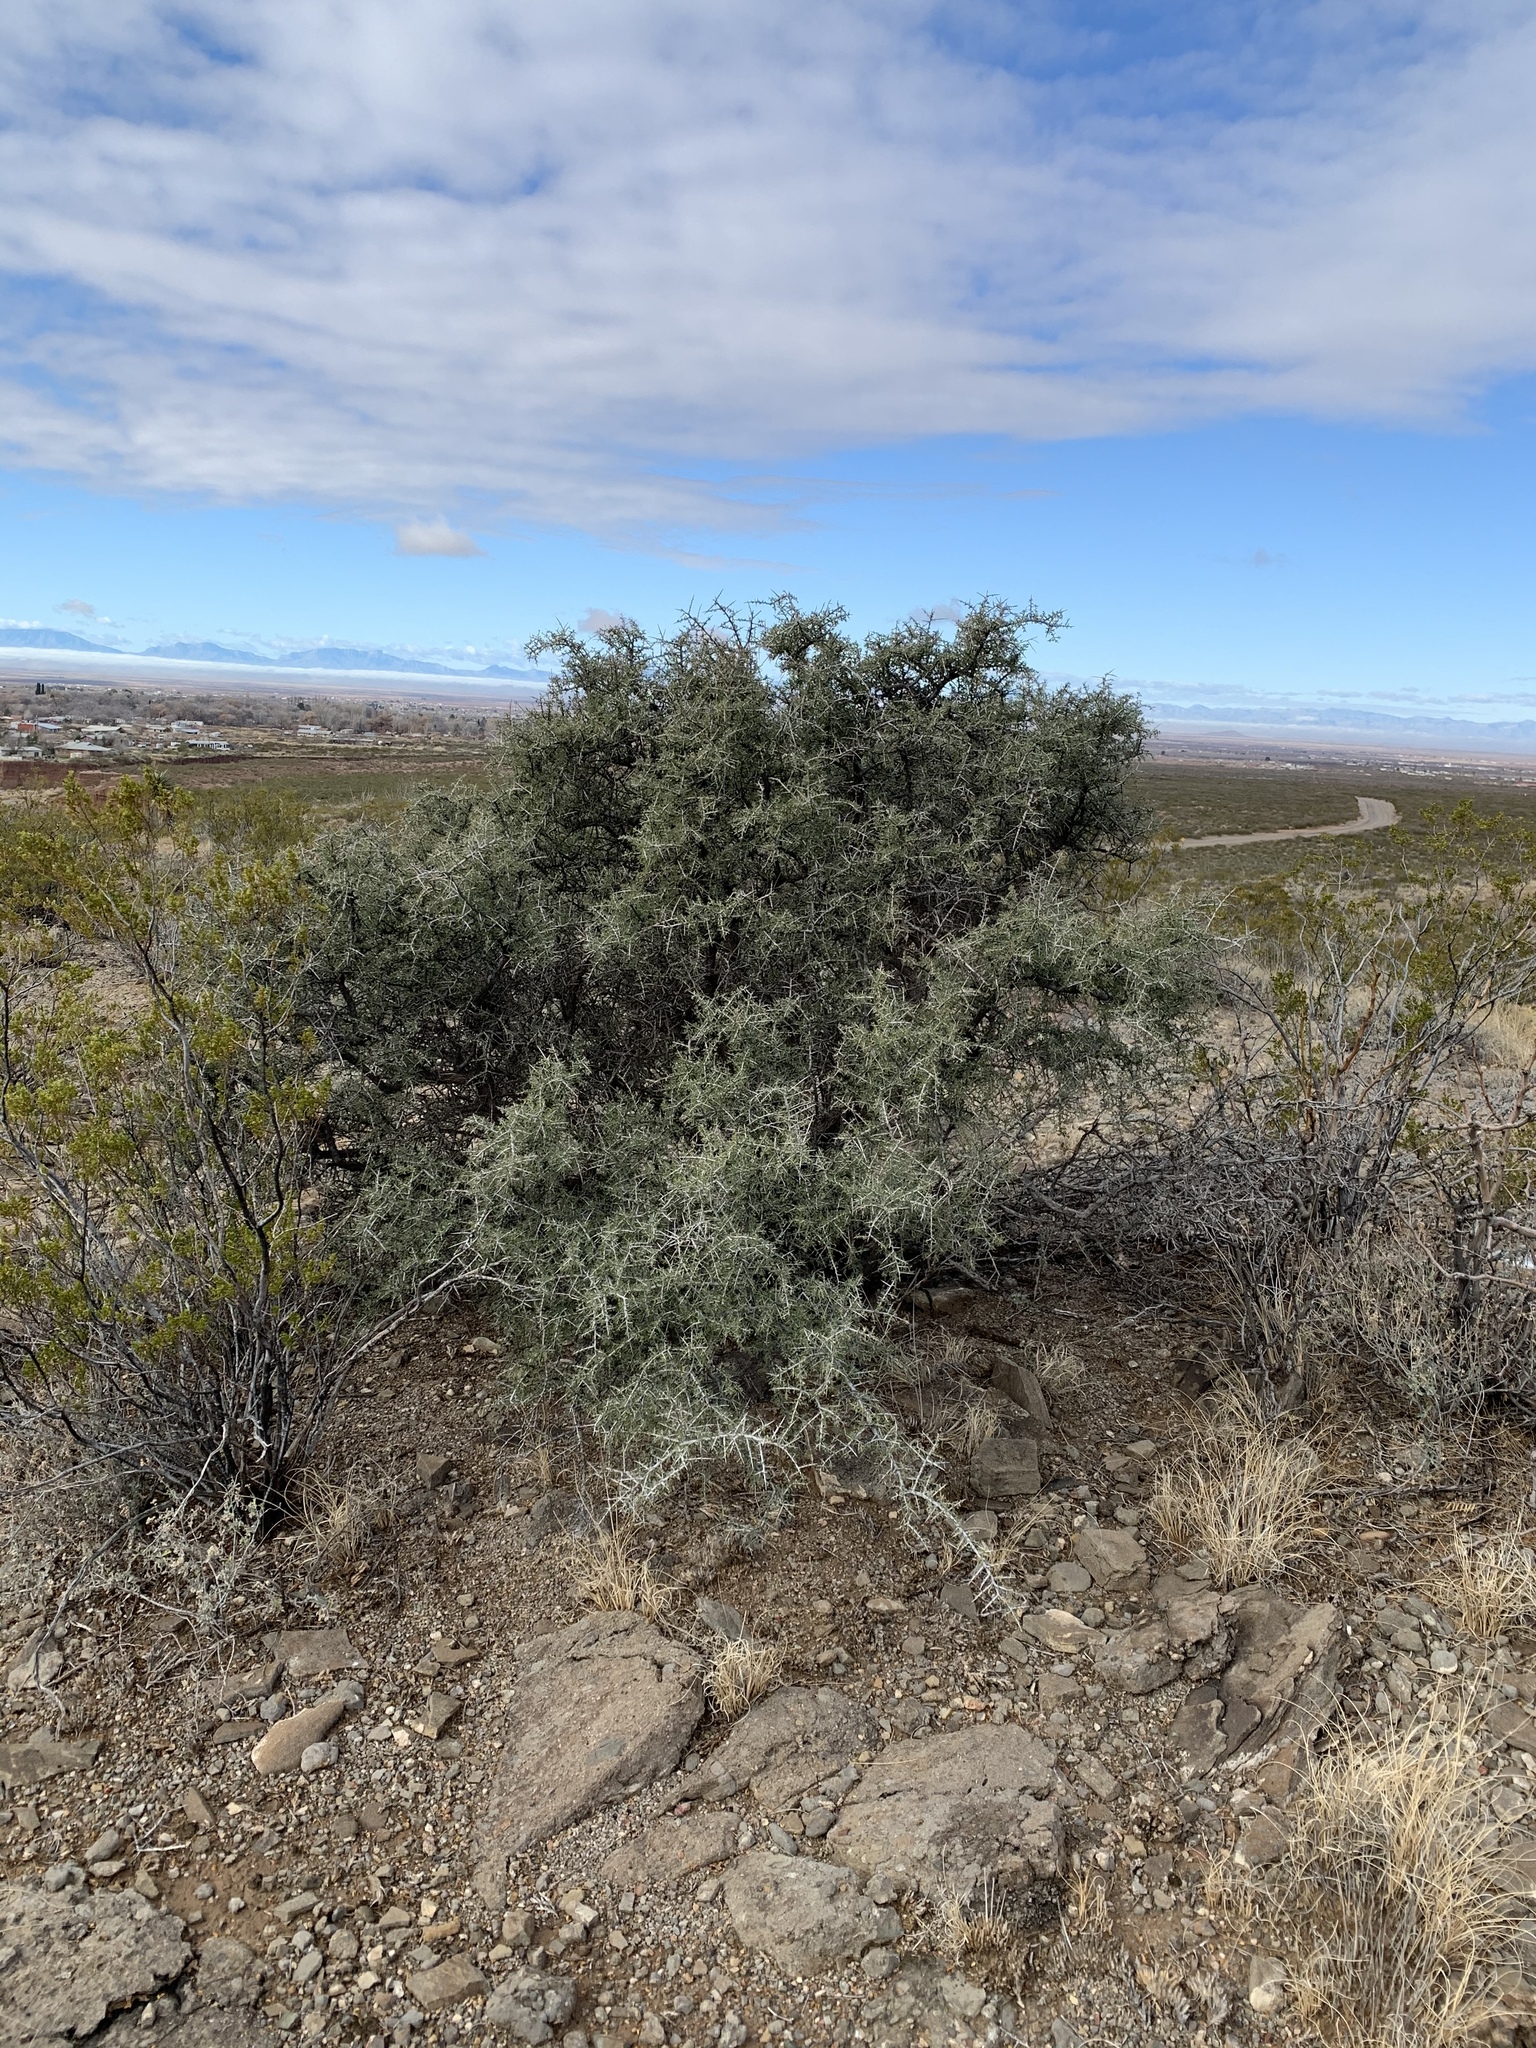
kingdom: Plantae
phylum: Tracheophyta
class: Magnoliopsida
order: Rosales
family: Rhamnaceae
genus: Condalia
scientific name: Condalia warnockii
